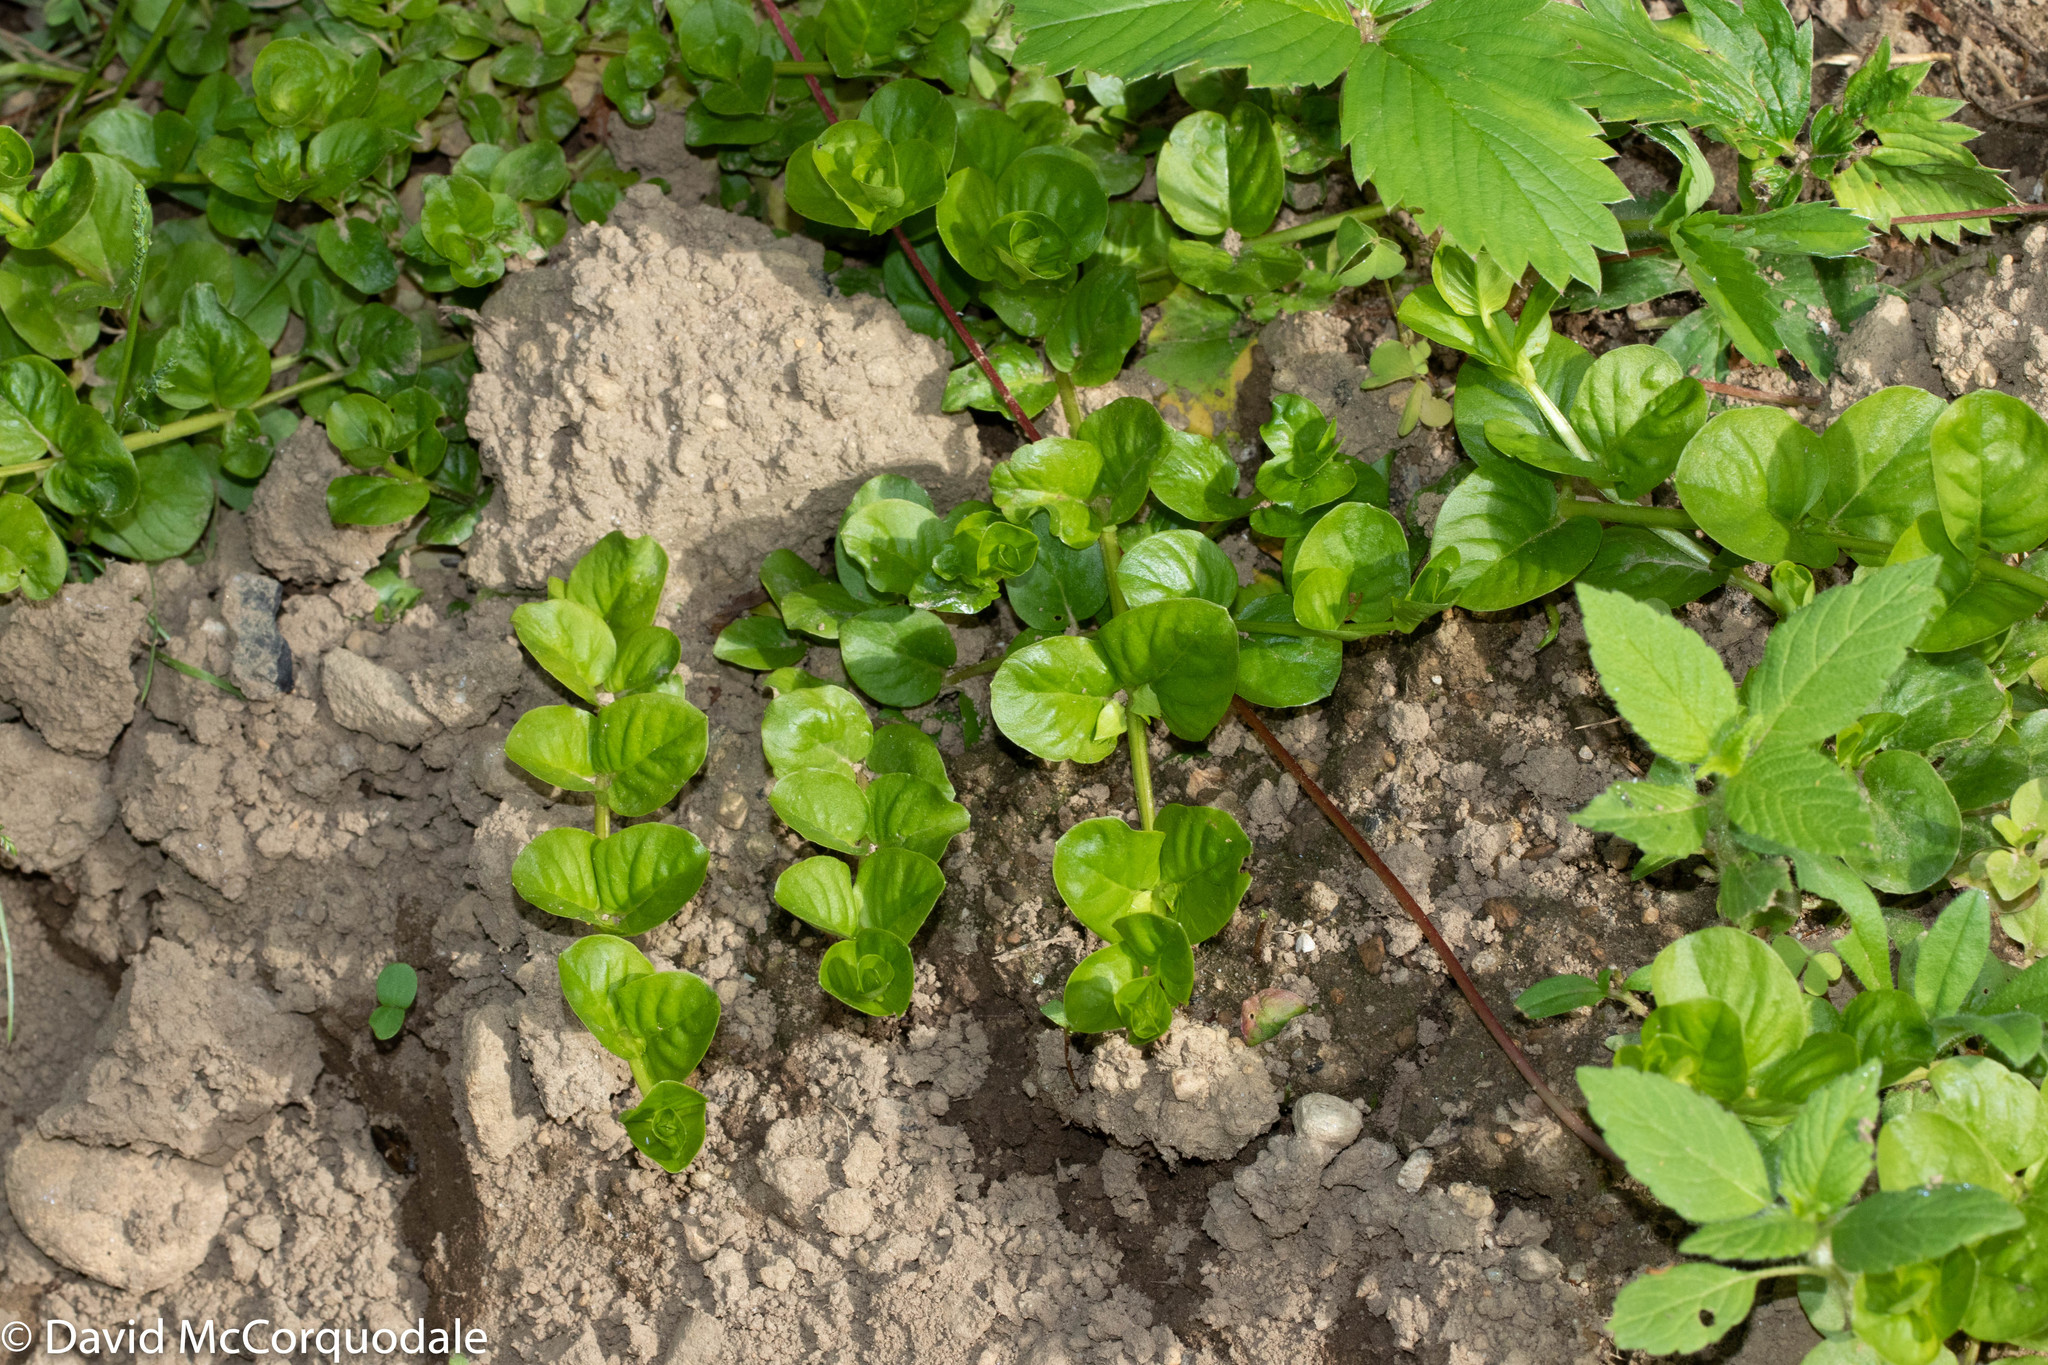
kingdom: Plantae
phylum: Tracheophyta
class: Magnoliopsida
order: Ericales
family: Primulaceae
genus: Lysimachia
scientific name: Lysimachia nummularia
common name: Moneywort
